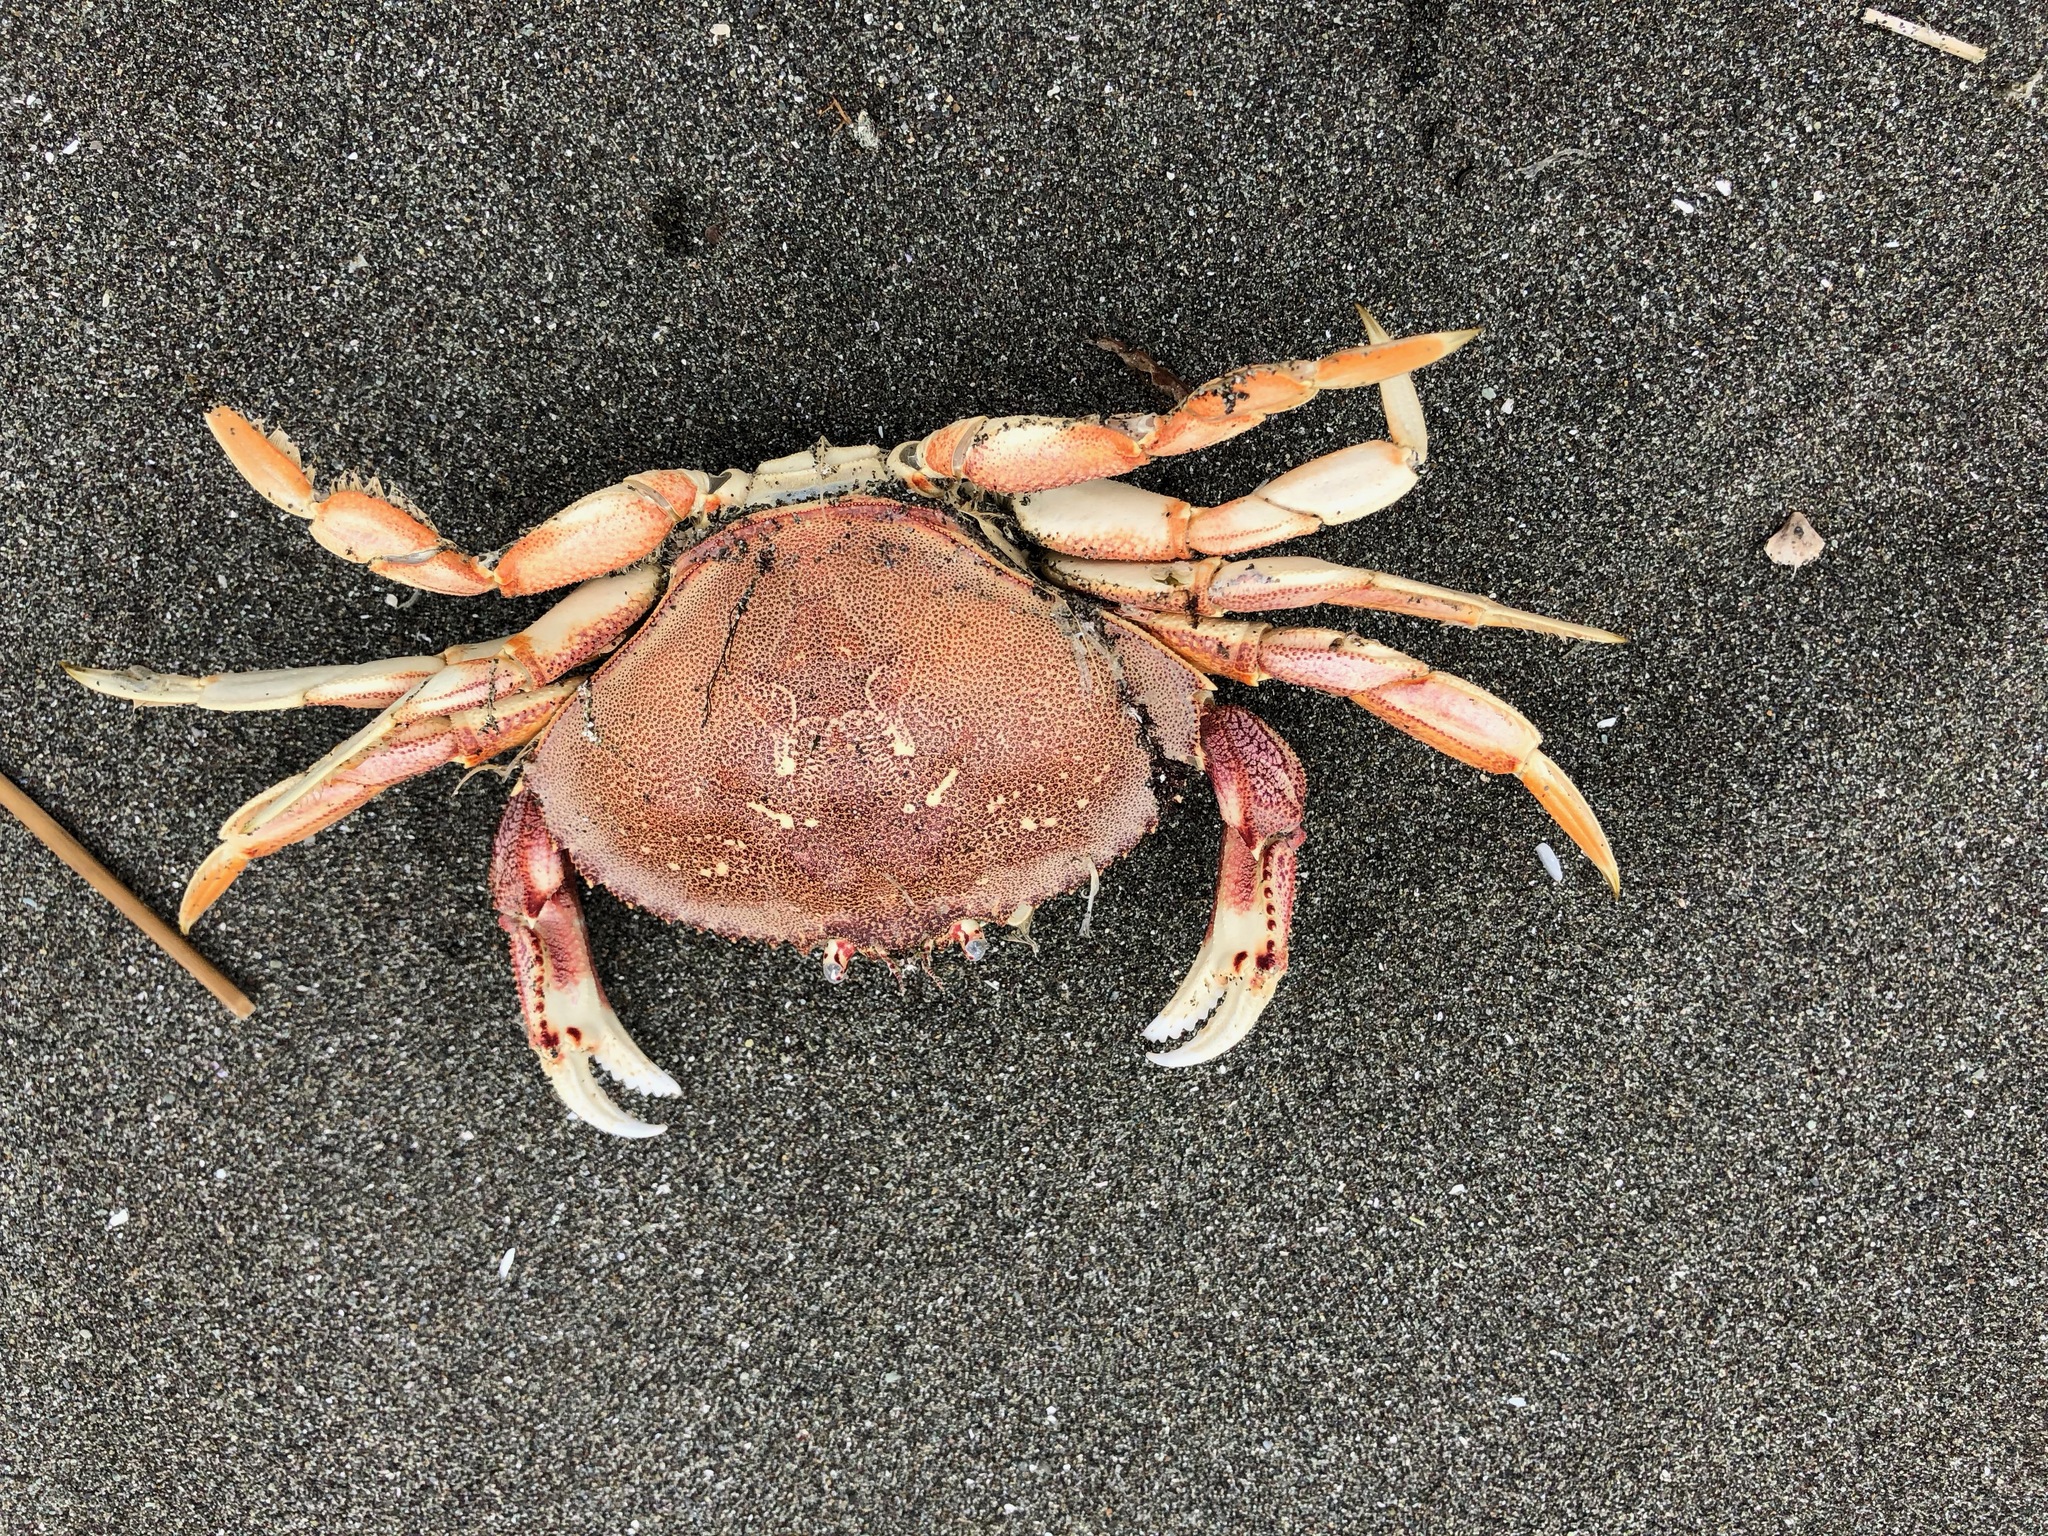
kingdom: Animalia
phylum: Arthropoda
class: Malacostraca
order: Decapoda
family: Cancridae
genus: Metacarcinus
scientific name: Metacarcinus magister
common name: Californian crab
